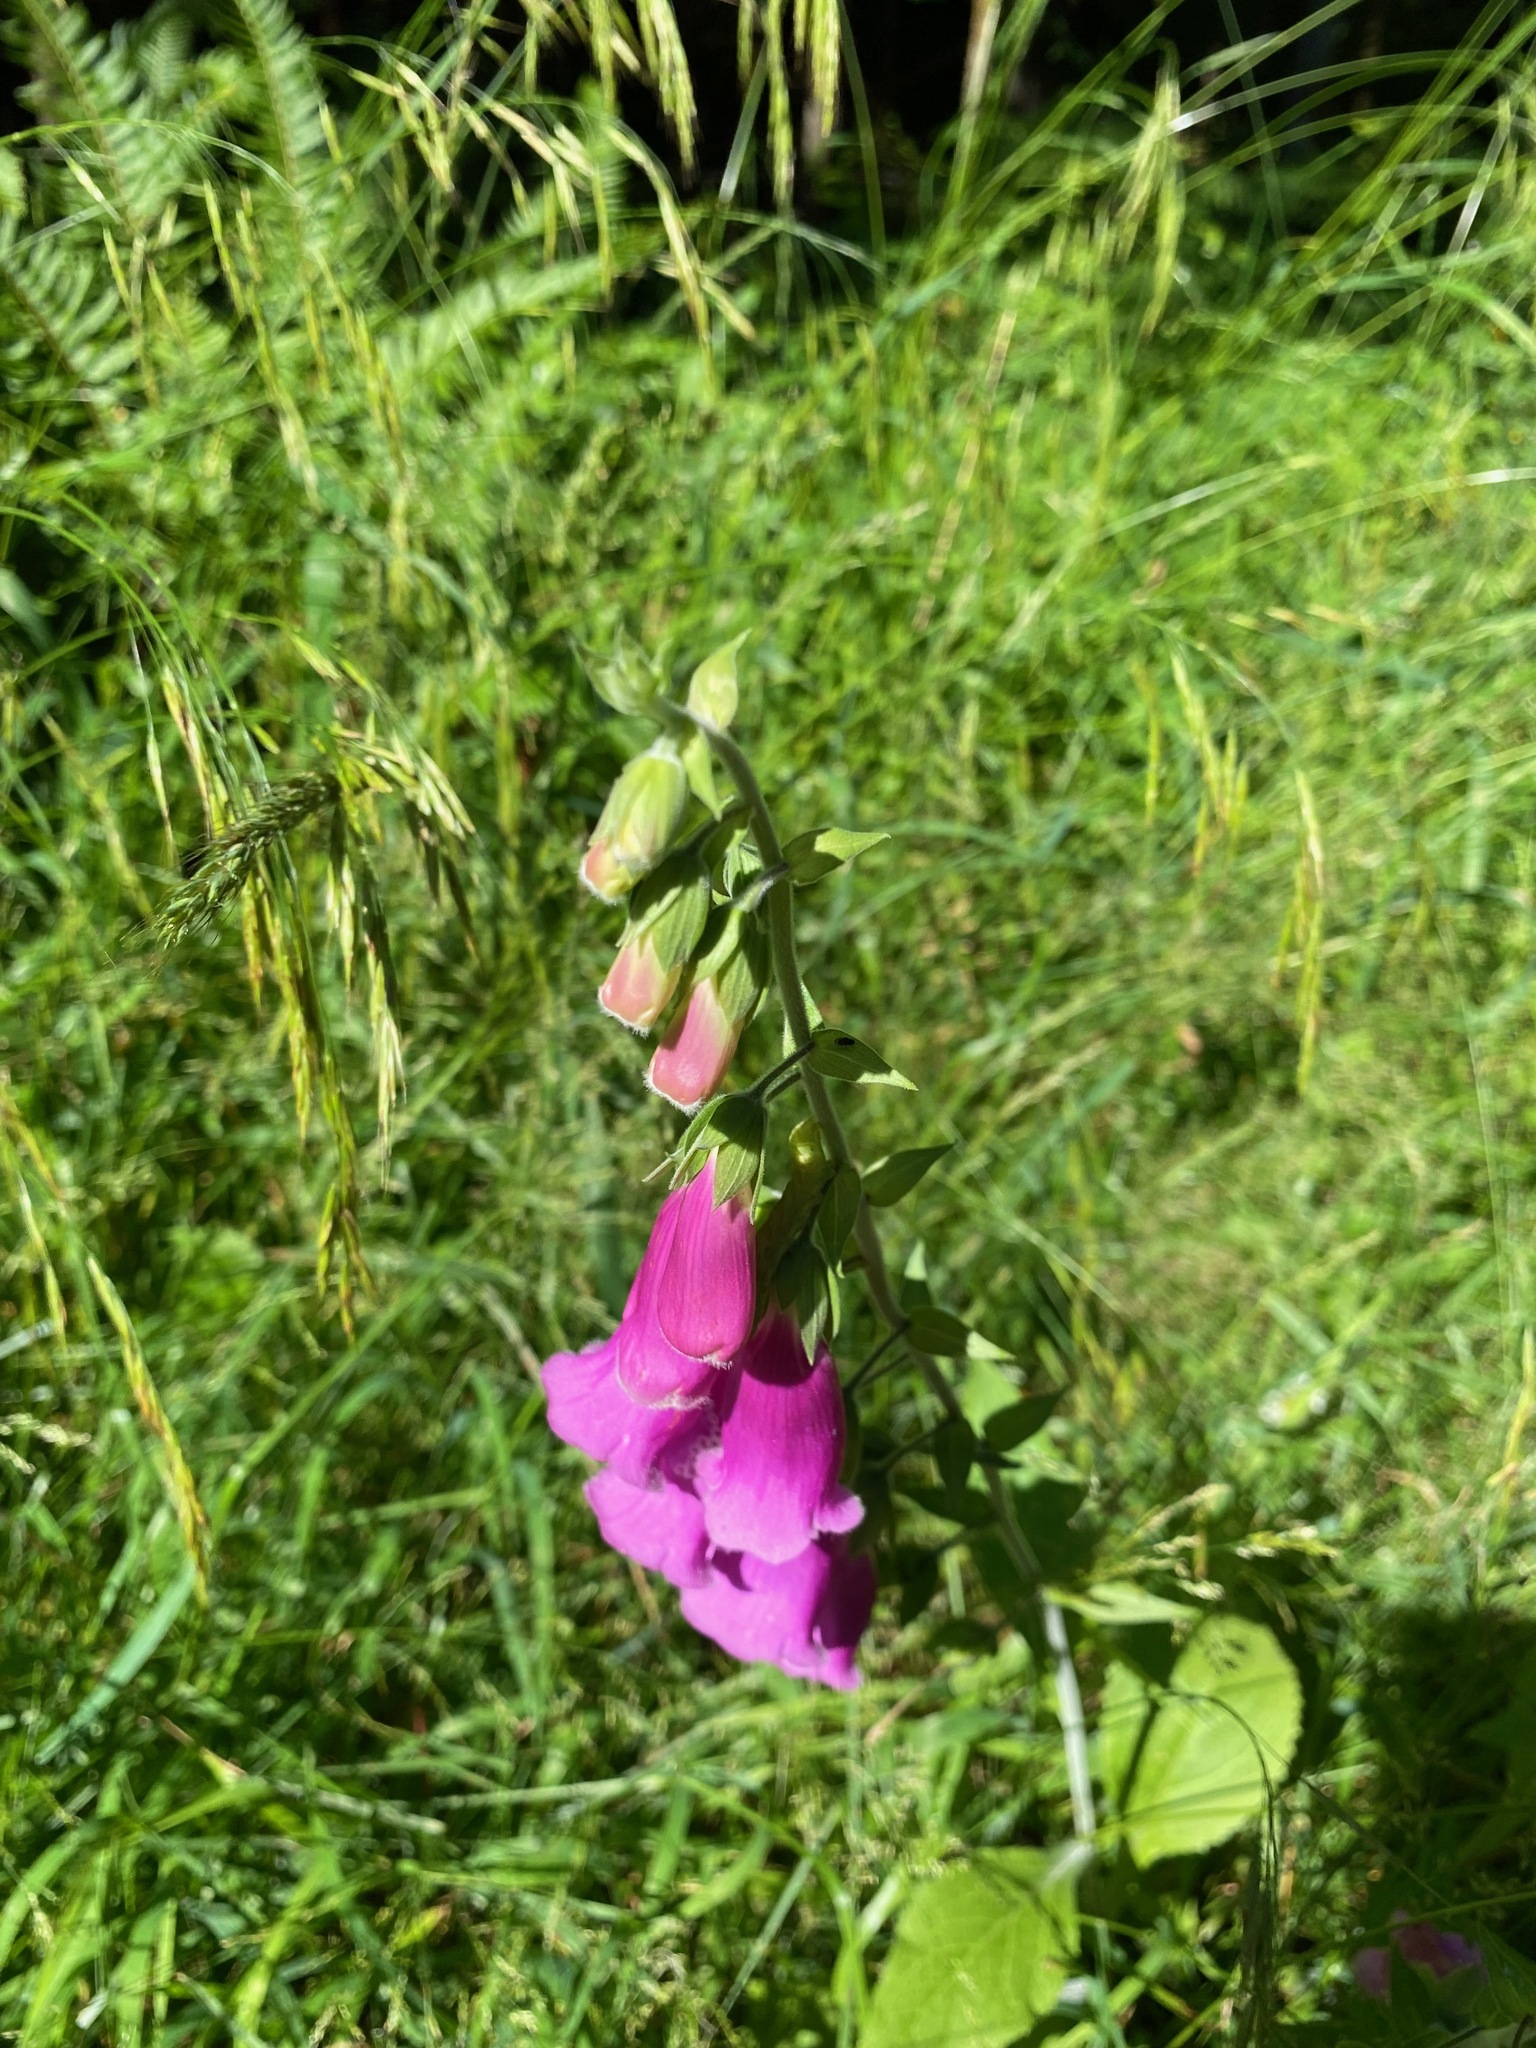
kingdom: Plantae
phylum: Tracheophyta
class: Magnoliopsida
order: Lamiales
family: Plantaginaceae
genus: Digitalis
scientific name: Digitalis purpurea
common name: Foxglove
